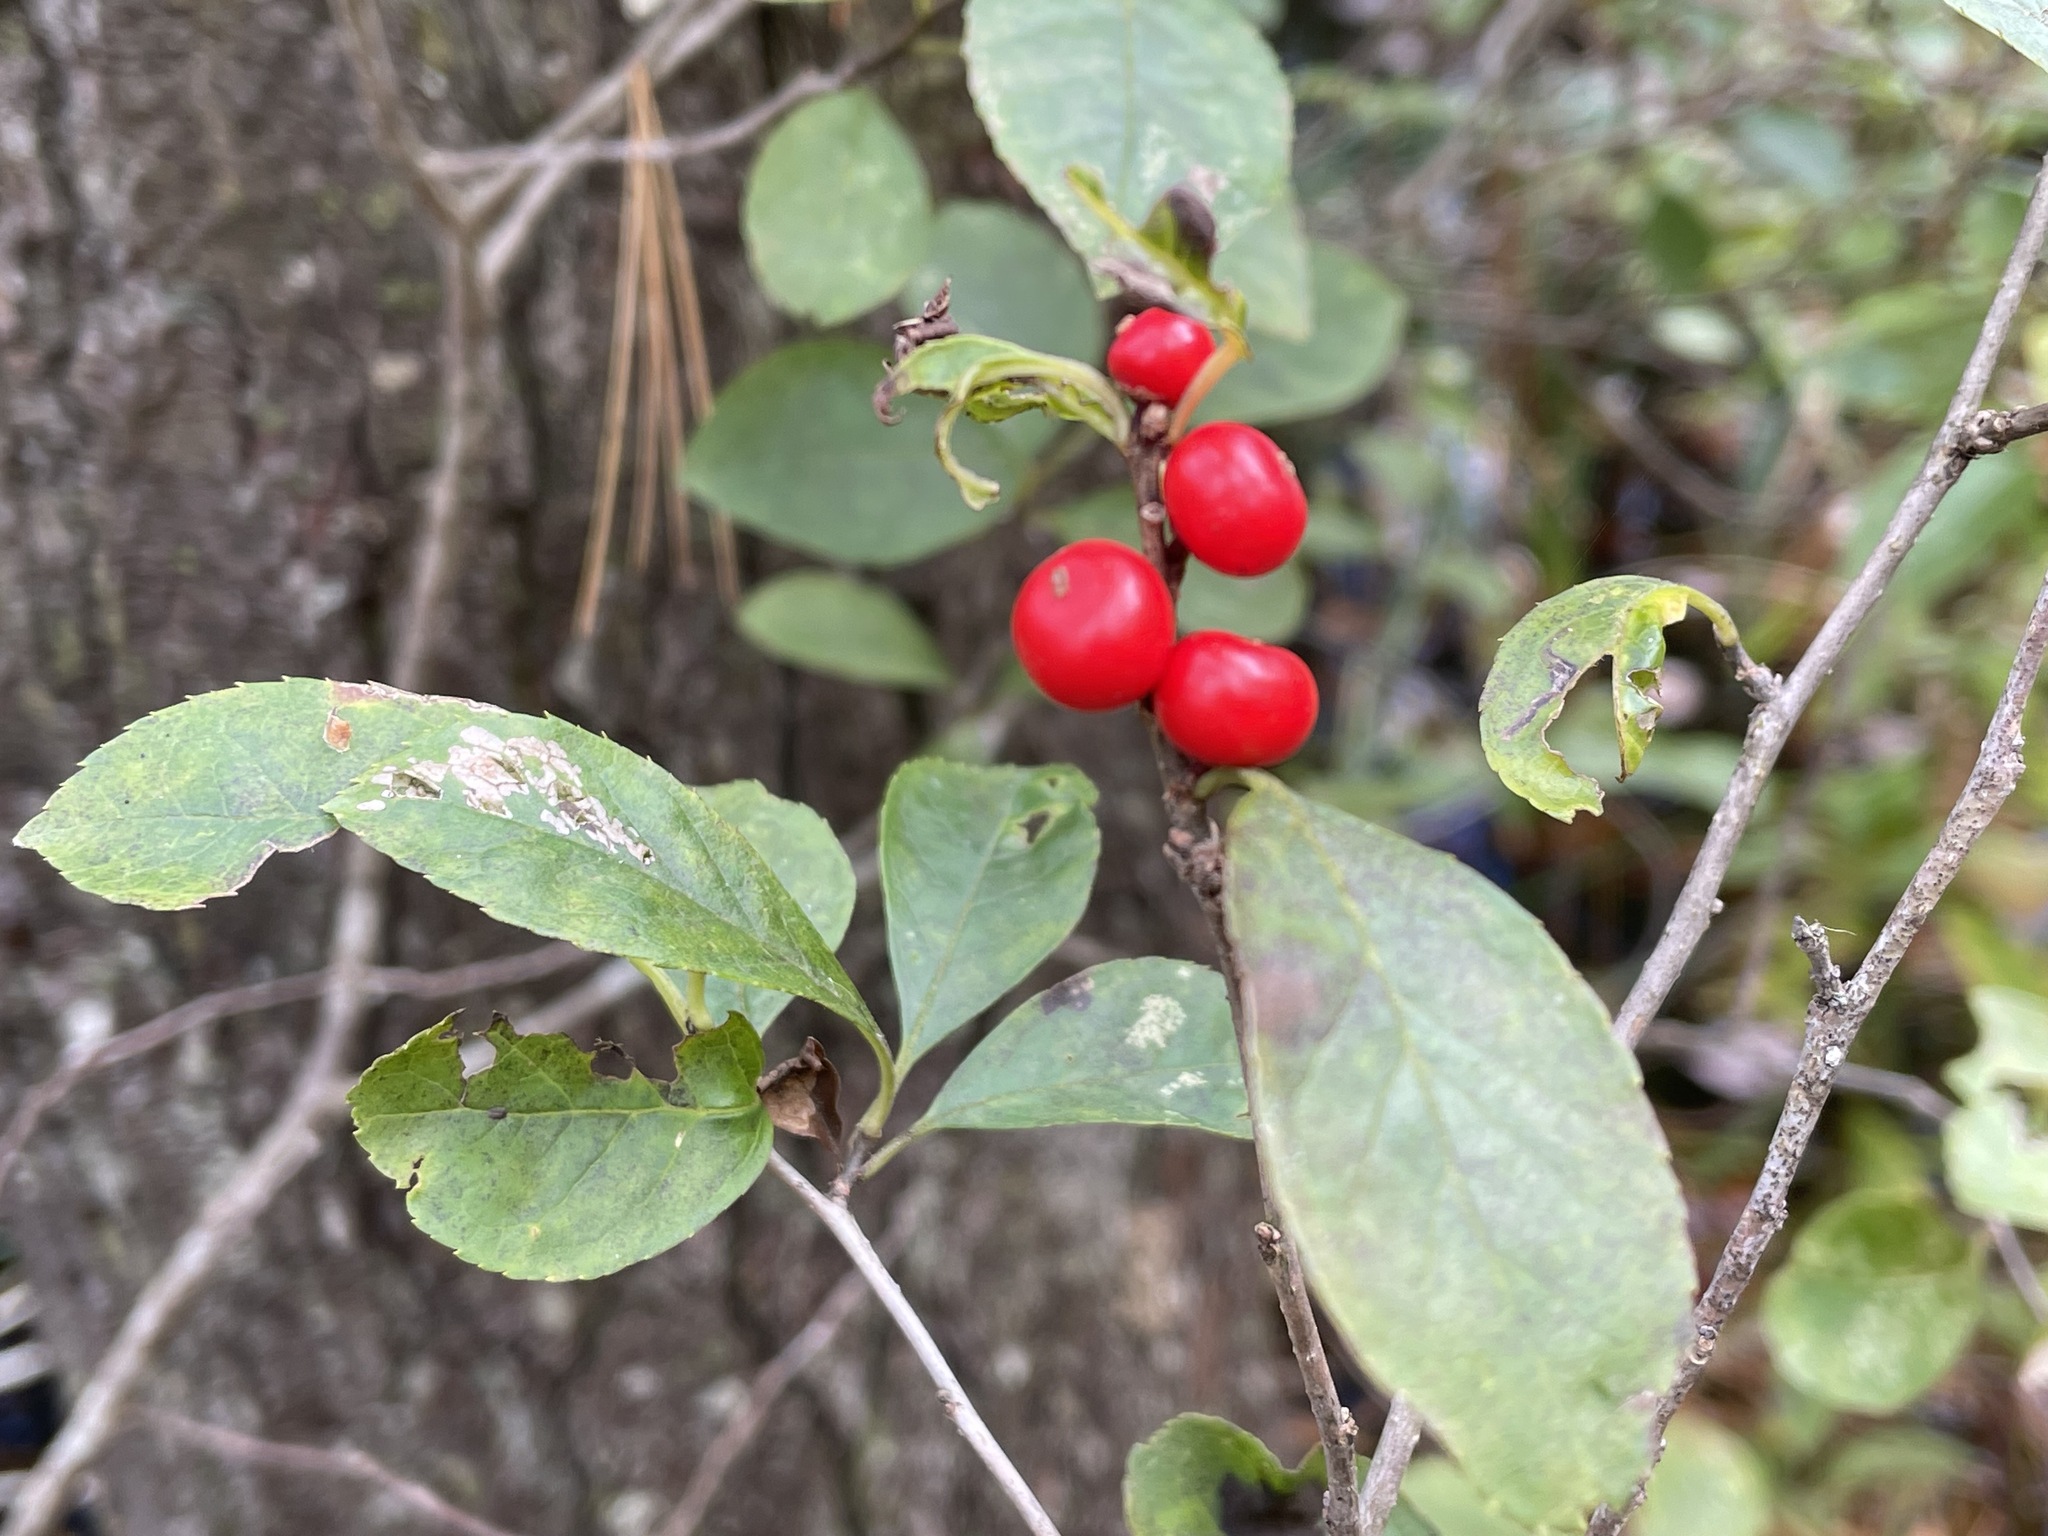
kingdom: Plantae
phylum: Tracheophyta
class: Magnoliopsida
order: Aquifoliales
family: Aquifoliaceae
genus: Ilex
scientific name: Ilex verticillata
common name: Virginia winterberry
